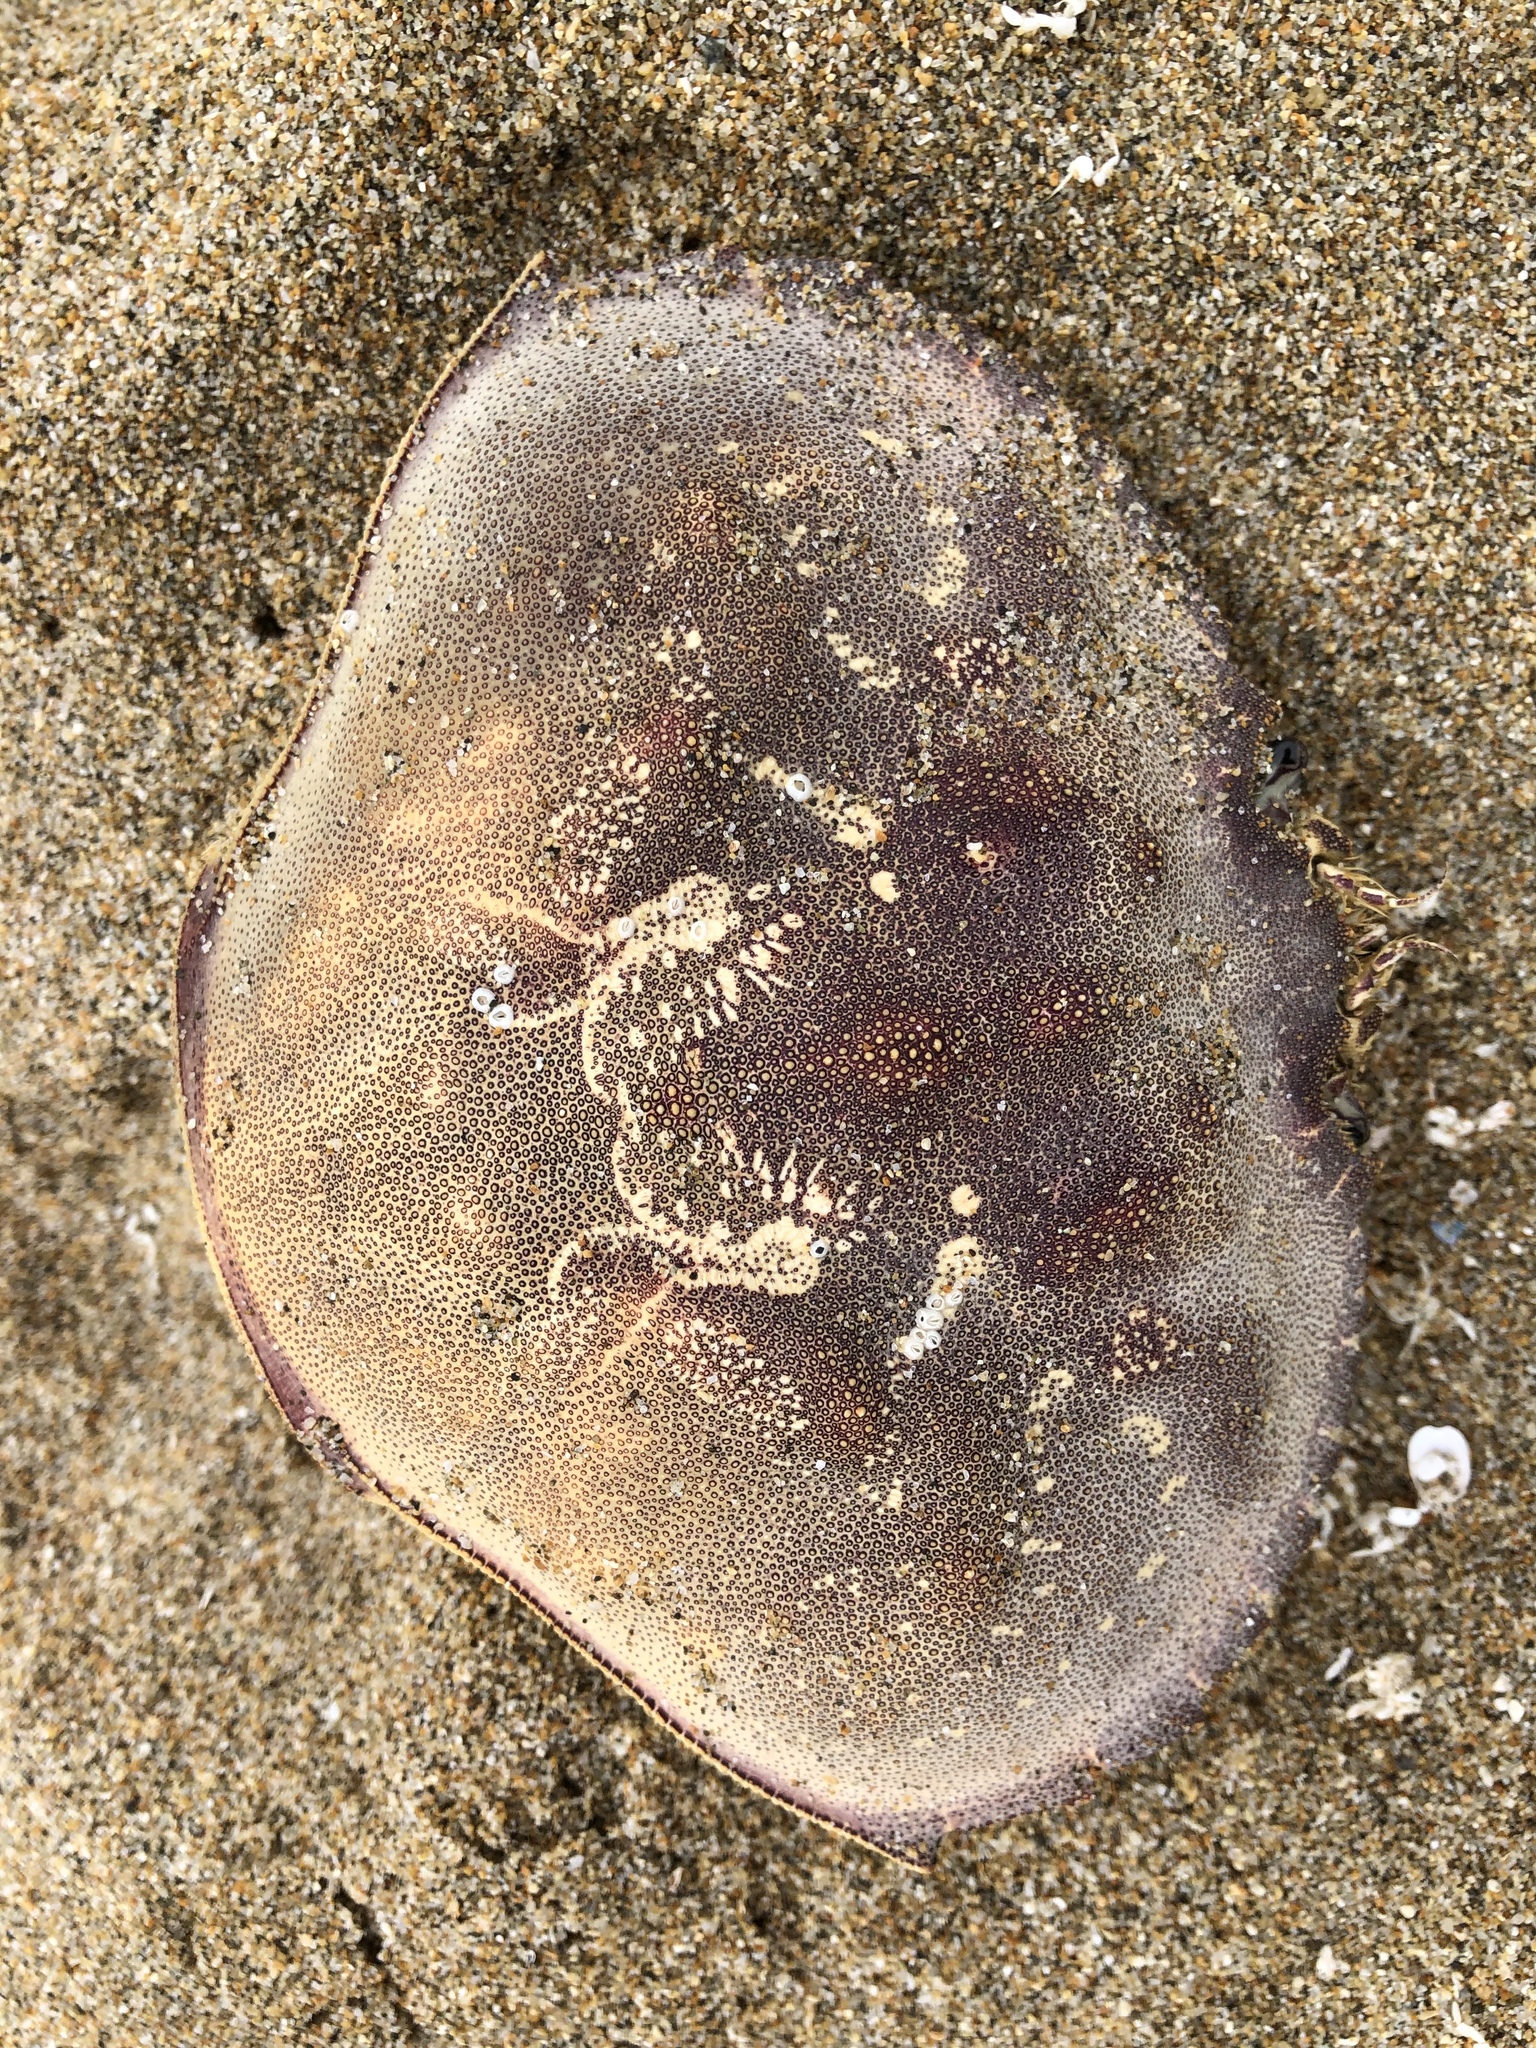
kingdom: Animalia
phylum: Arthropoda
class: Malacostraca
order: Decapoda
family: Cancridae
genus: Metacarcinus
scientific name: Metacarcinus magister
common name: Californian crab
